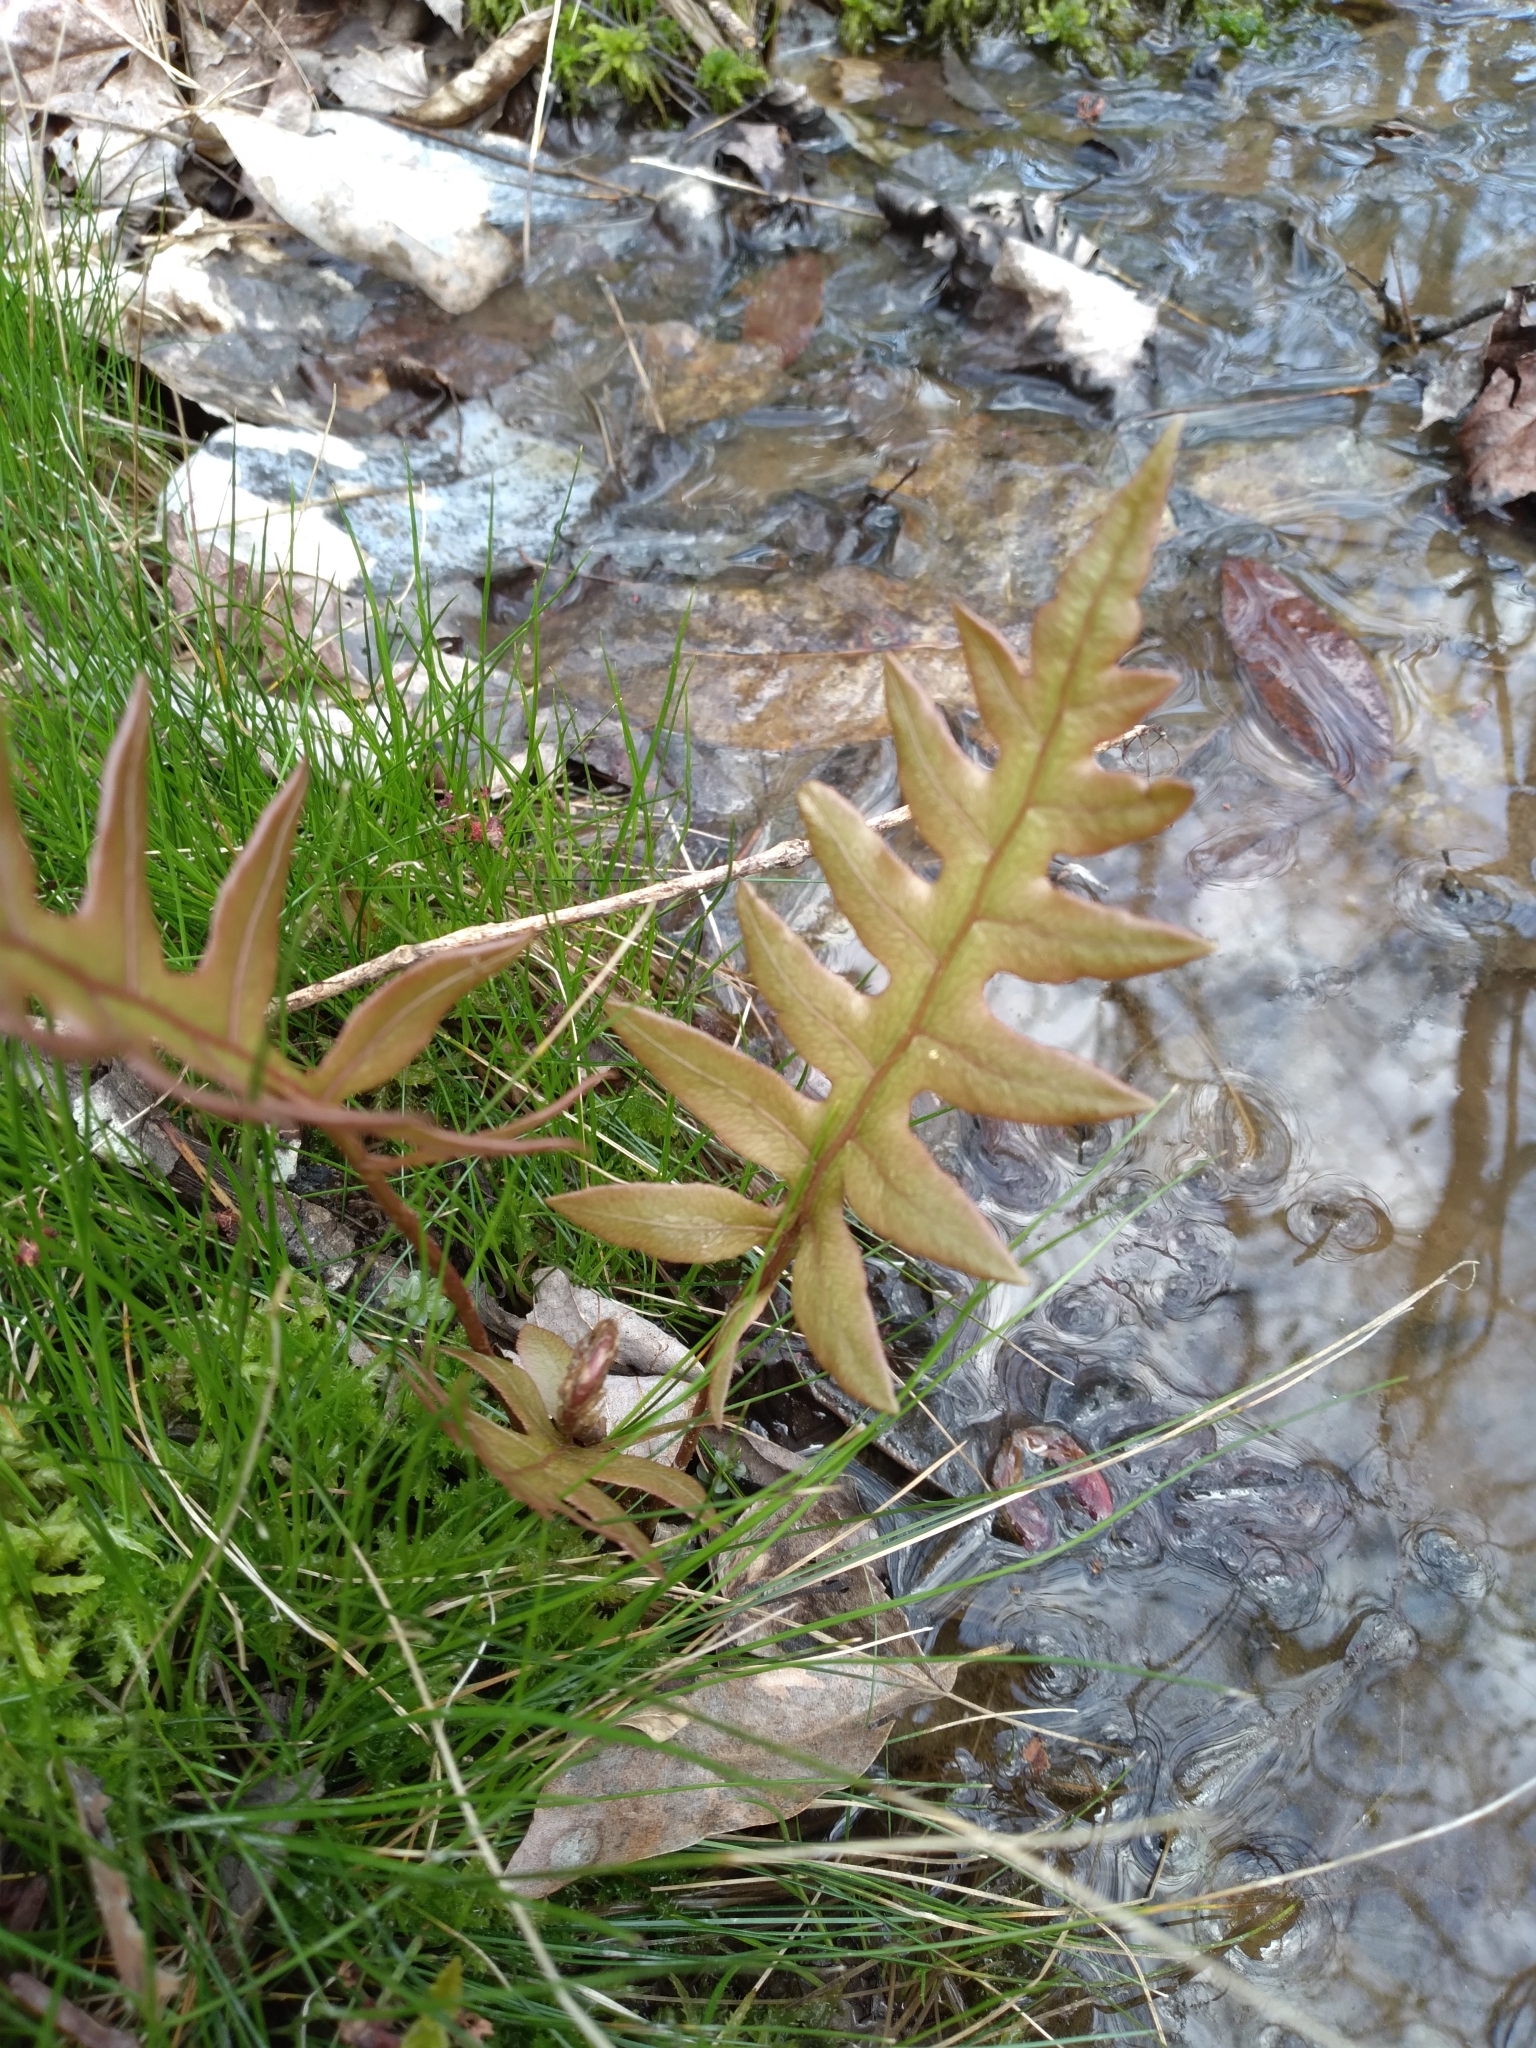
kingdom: Plantae
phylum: Tracheophyta
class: Polypodiopsida
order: Polypodiales
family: Blechnaceae
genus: Lorinseria
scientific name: Lorinseria areolata
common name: Dwarf chain fern
